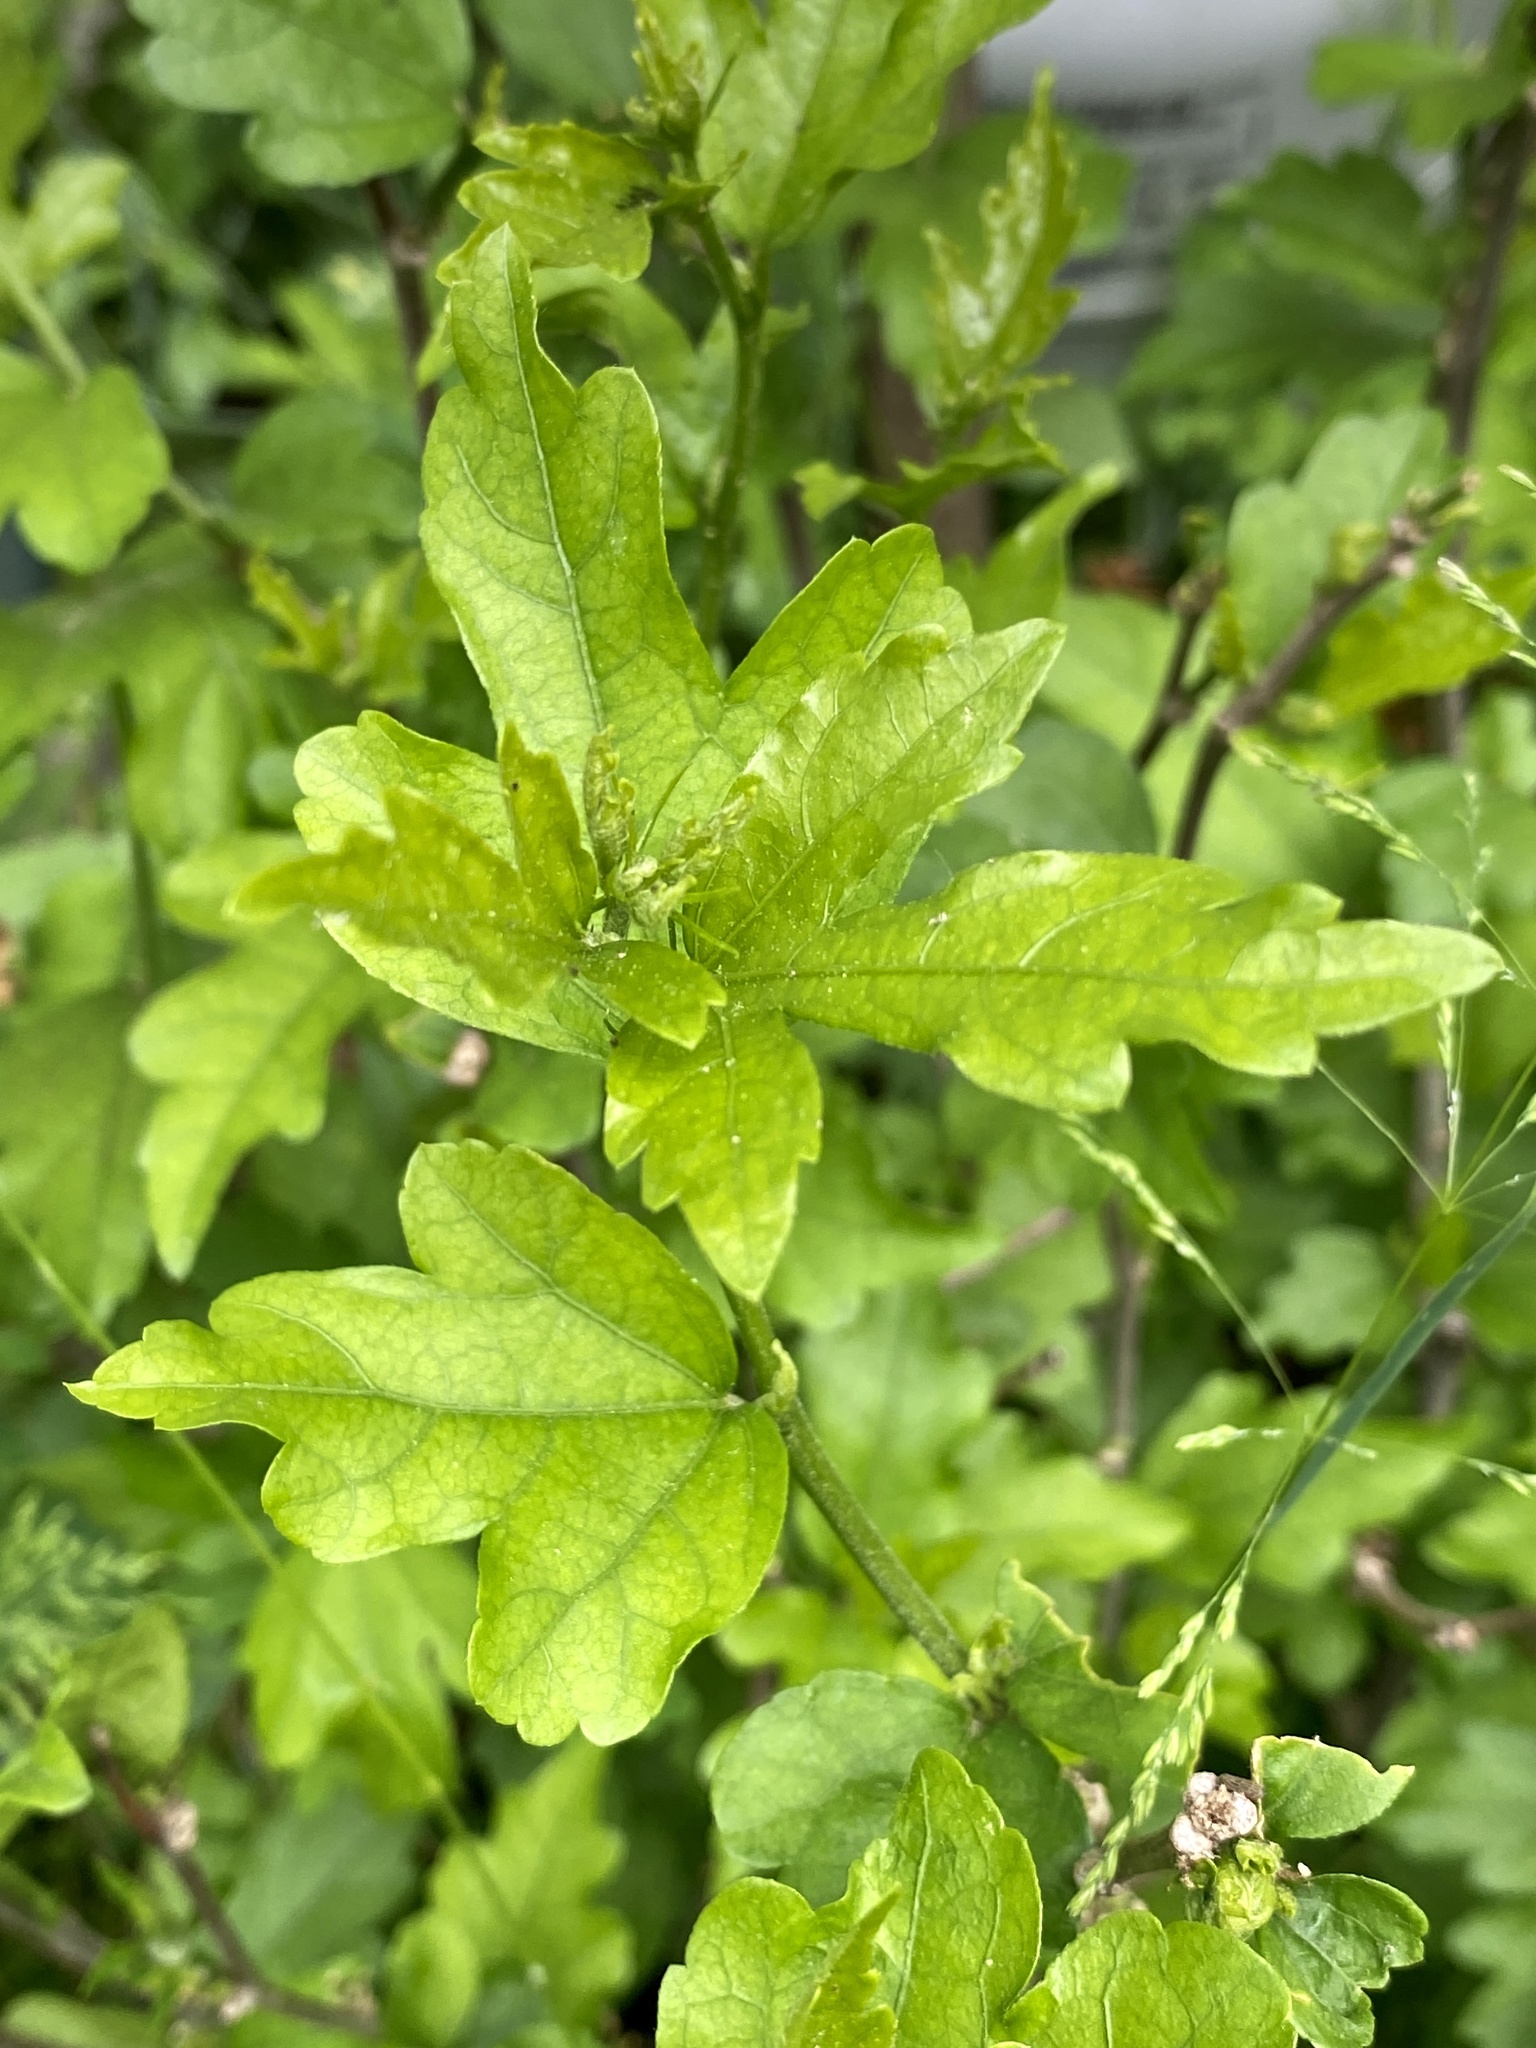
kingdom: Plantae
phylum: Tracheophyta
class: Magnoliopsida
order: Malvales
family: Malvaceae
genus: Hibiscus
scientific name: Hibiscus syriacus
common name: Syrian ketmia
